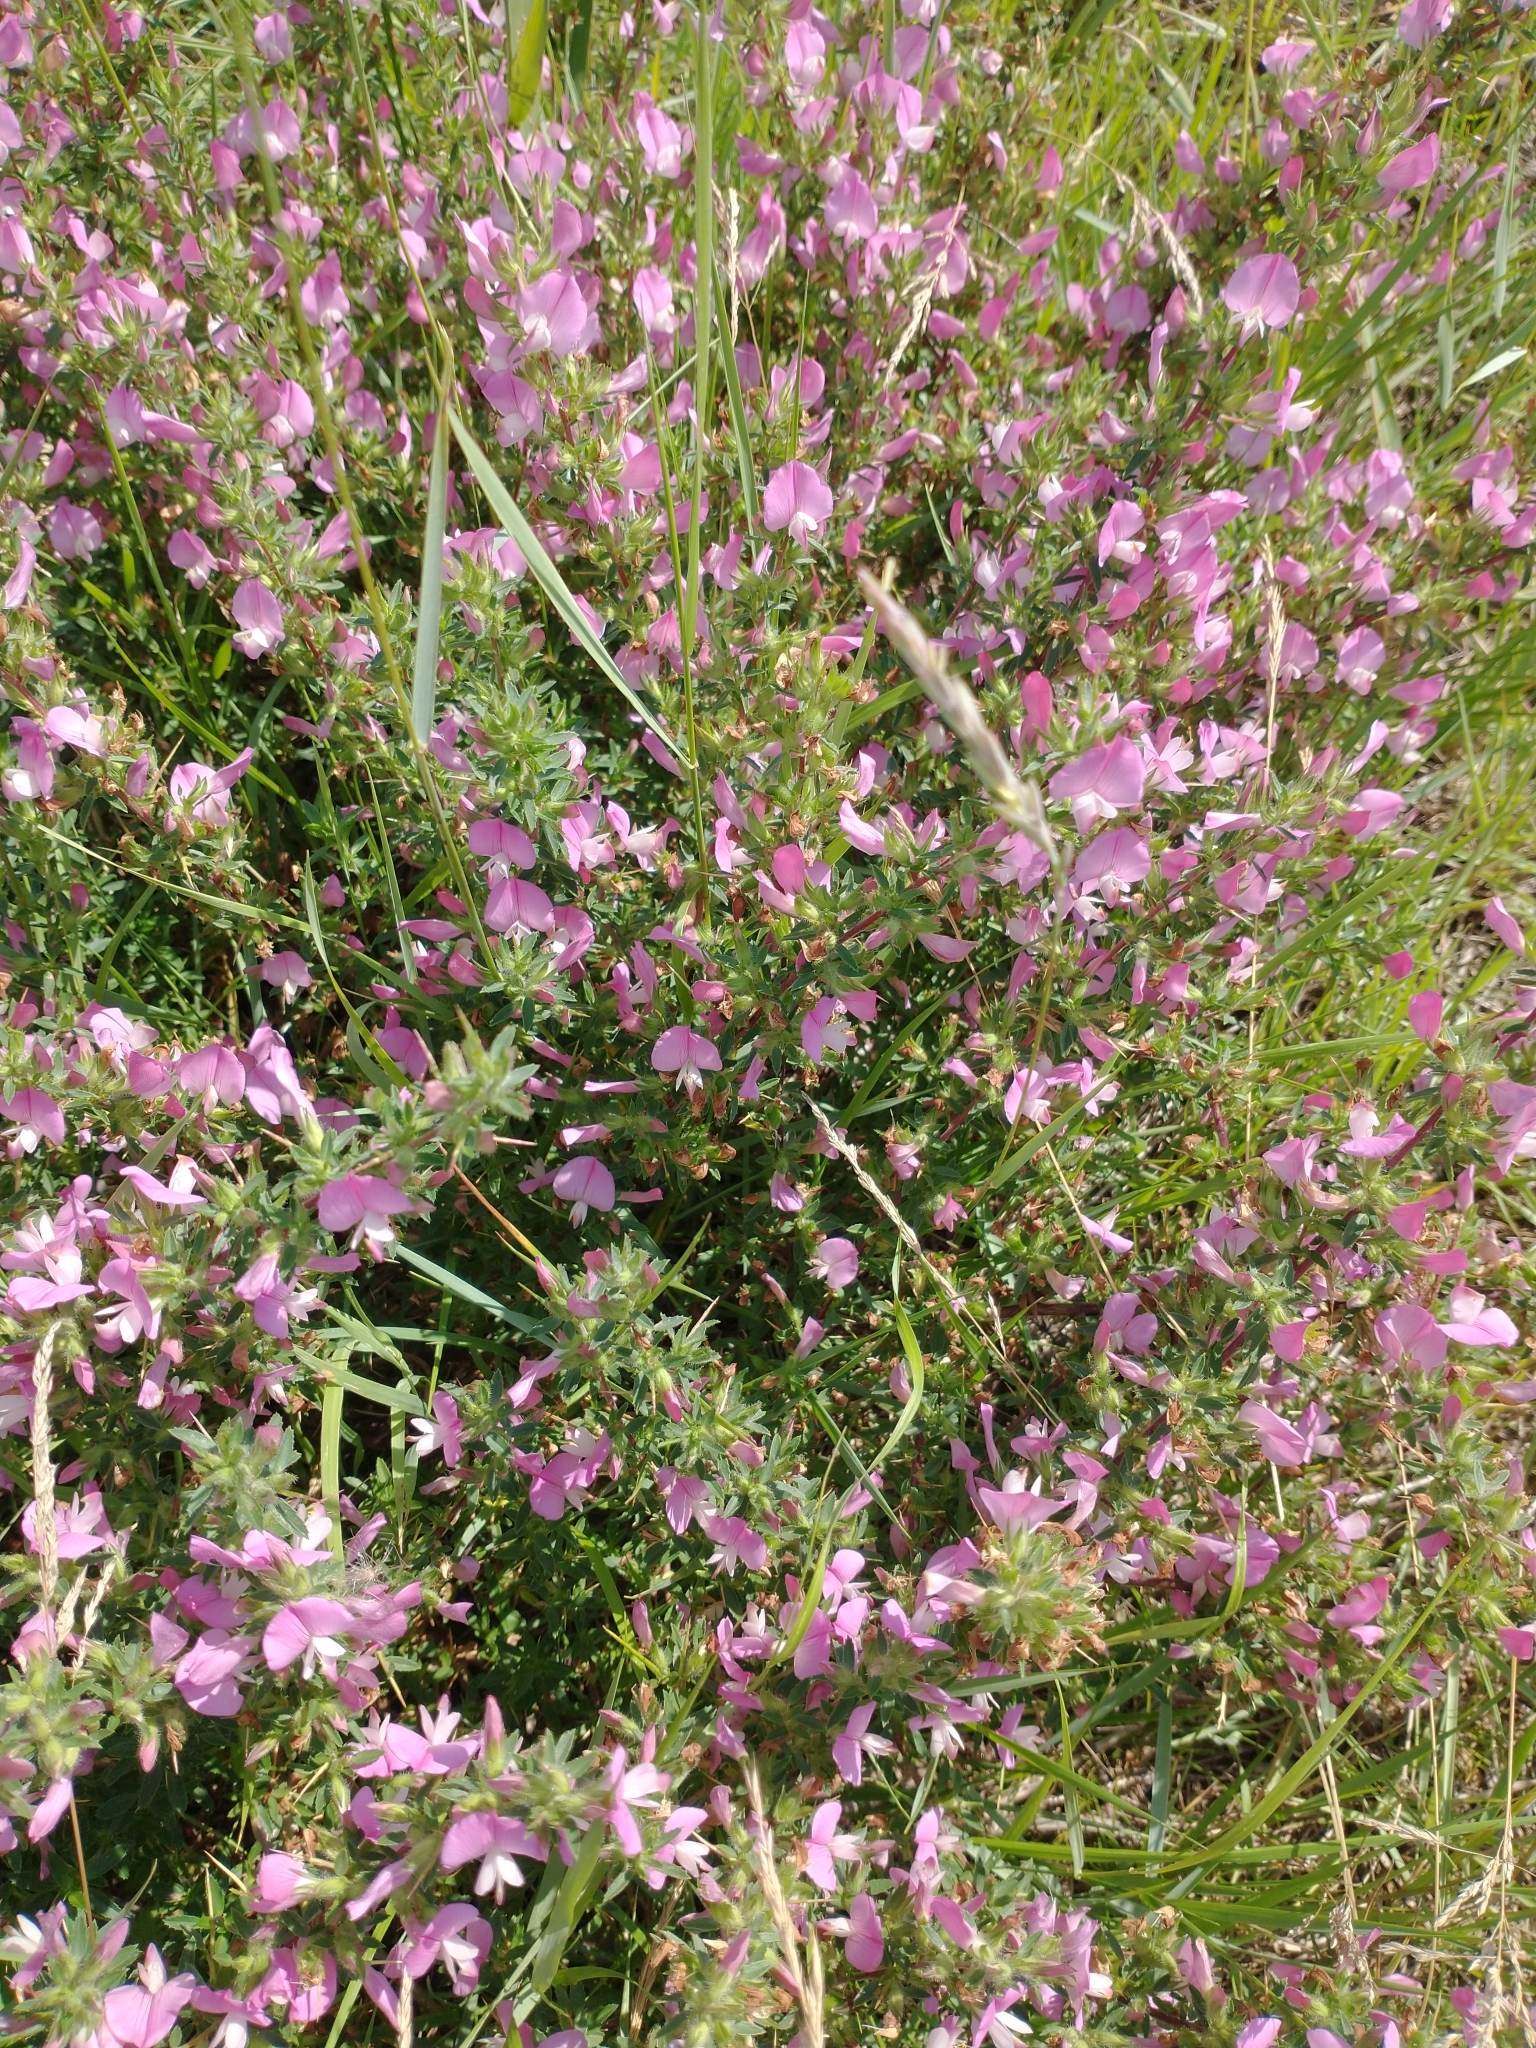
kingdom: Plantae
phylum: Tracheophyta
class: Magnoliopsida
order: Fabales
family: Fabaceae
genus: Ononis
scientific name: Ononis spinosa
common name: Spiny restharrow
